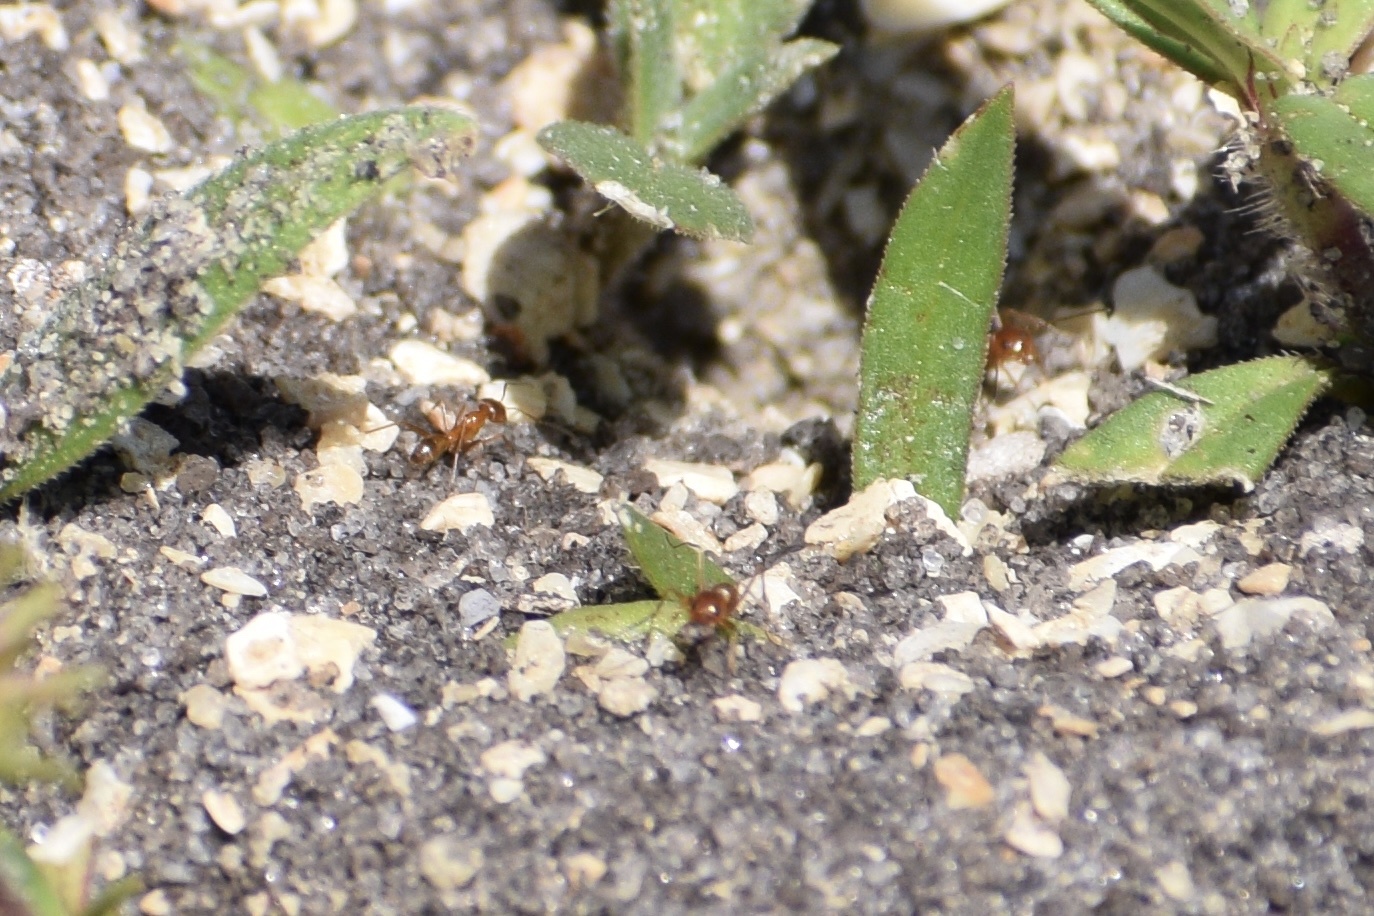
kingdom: Animalia
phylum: Arthropoda
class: Insecta
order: Hymenoptera
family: Formicidae
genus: Dorymyrmex
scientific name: Dorymyrmex bureni
